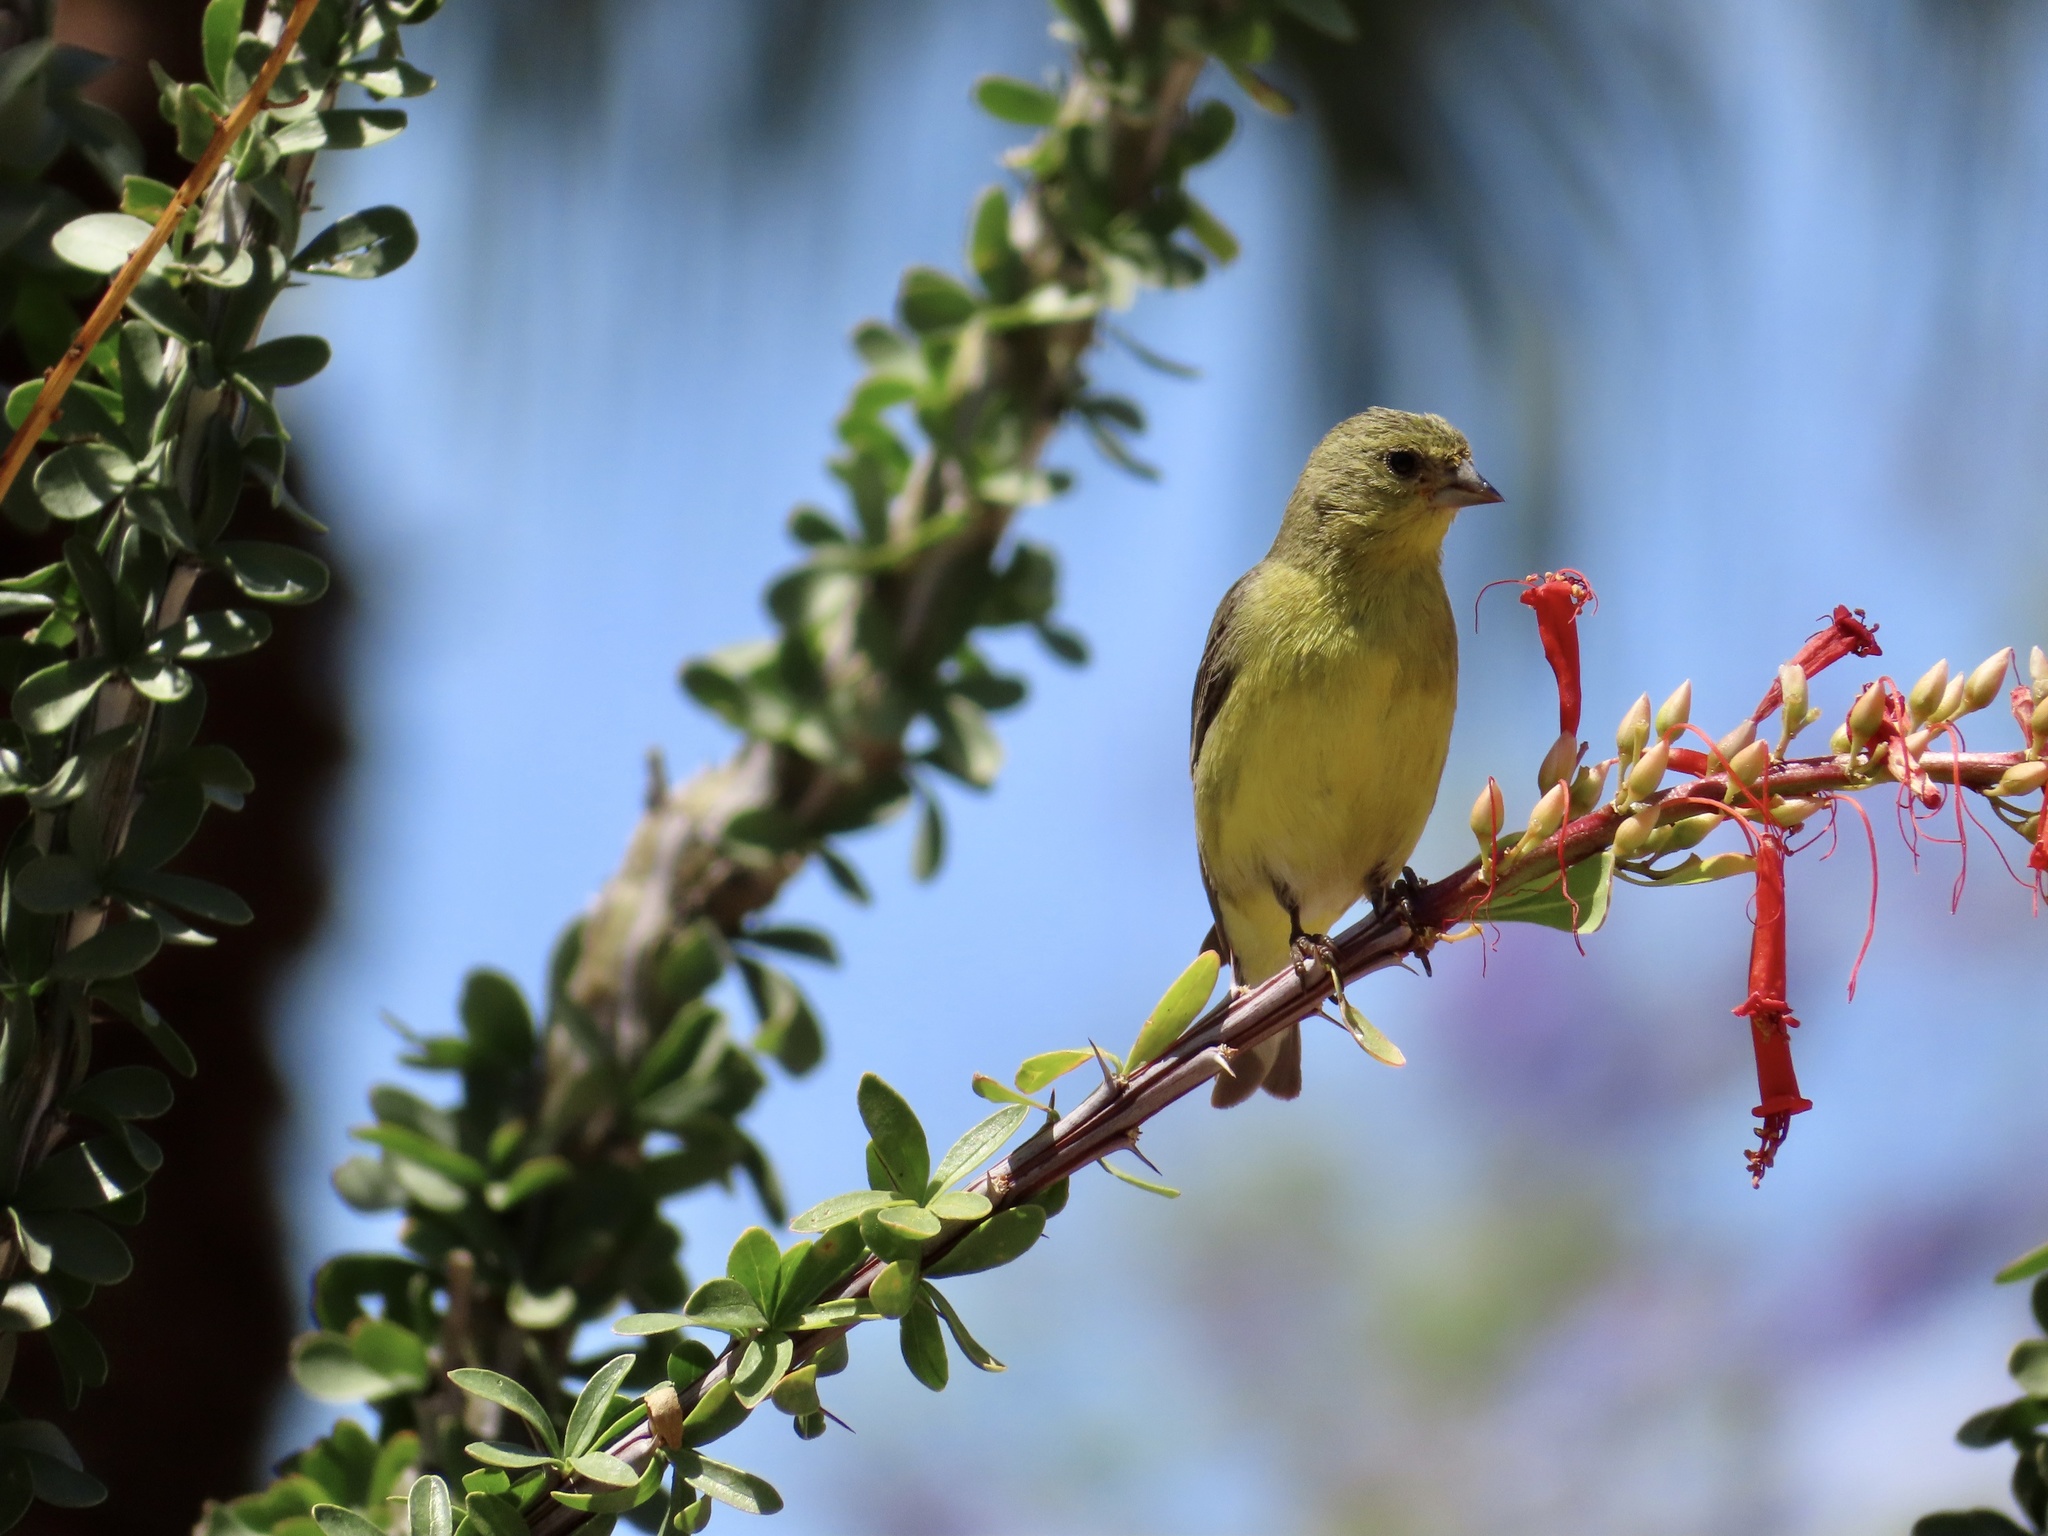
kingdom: Animalia
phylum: Chordata
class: Aves
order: Passeriformes
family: Fringillidae
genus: Spinus
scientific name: Spinus psaltria
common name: Lesser goldfinch
